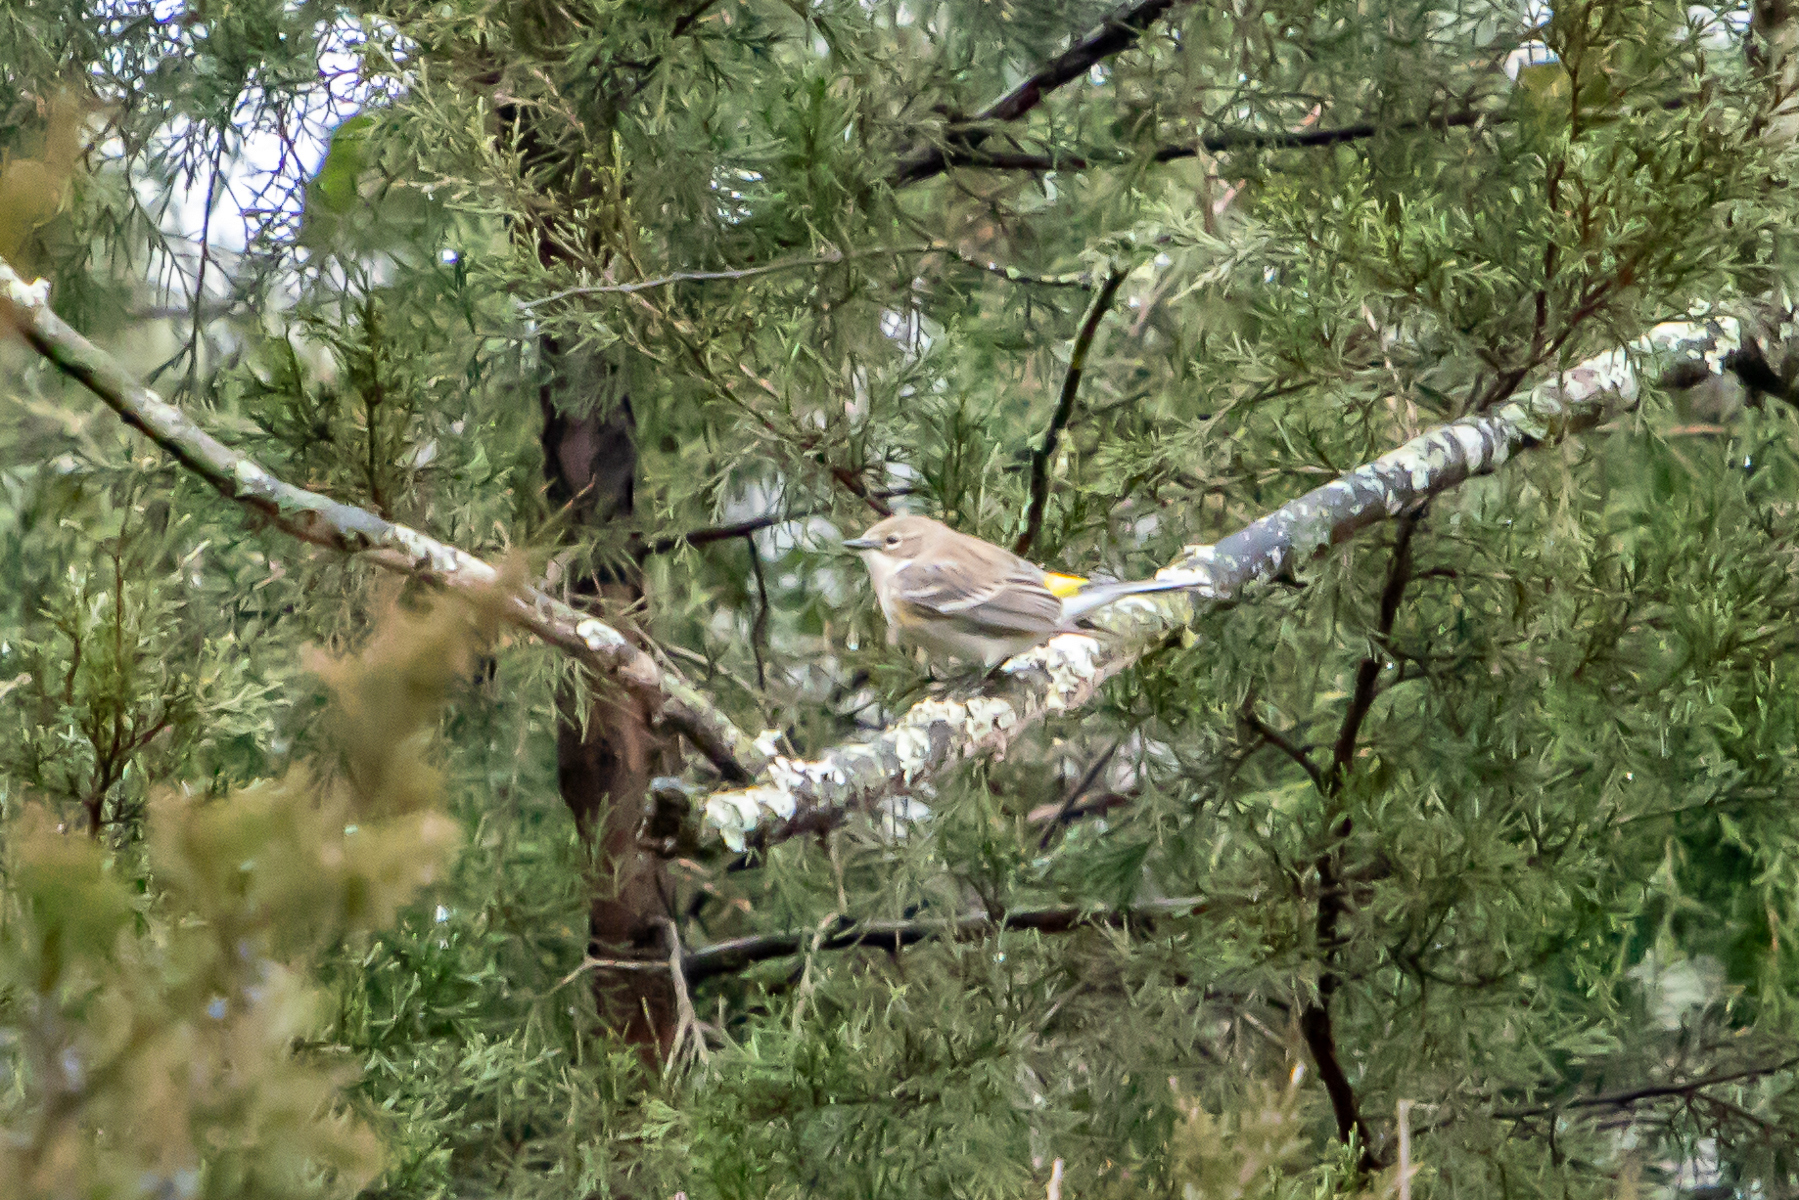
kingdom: Animalia
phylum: Chordata
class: Aves
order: Passeriformes
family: Parulidae
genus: Setophaga
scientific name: Setophaga coronata
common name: Myrtle warbler
